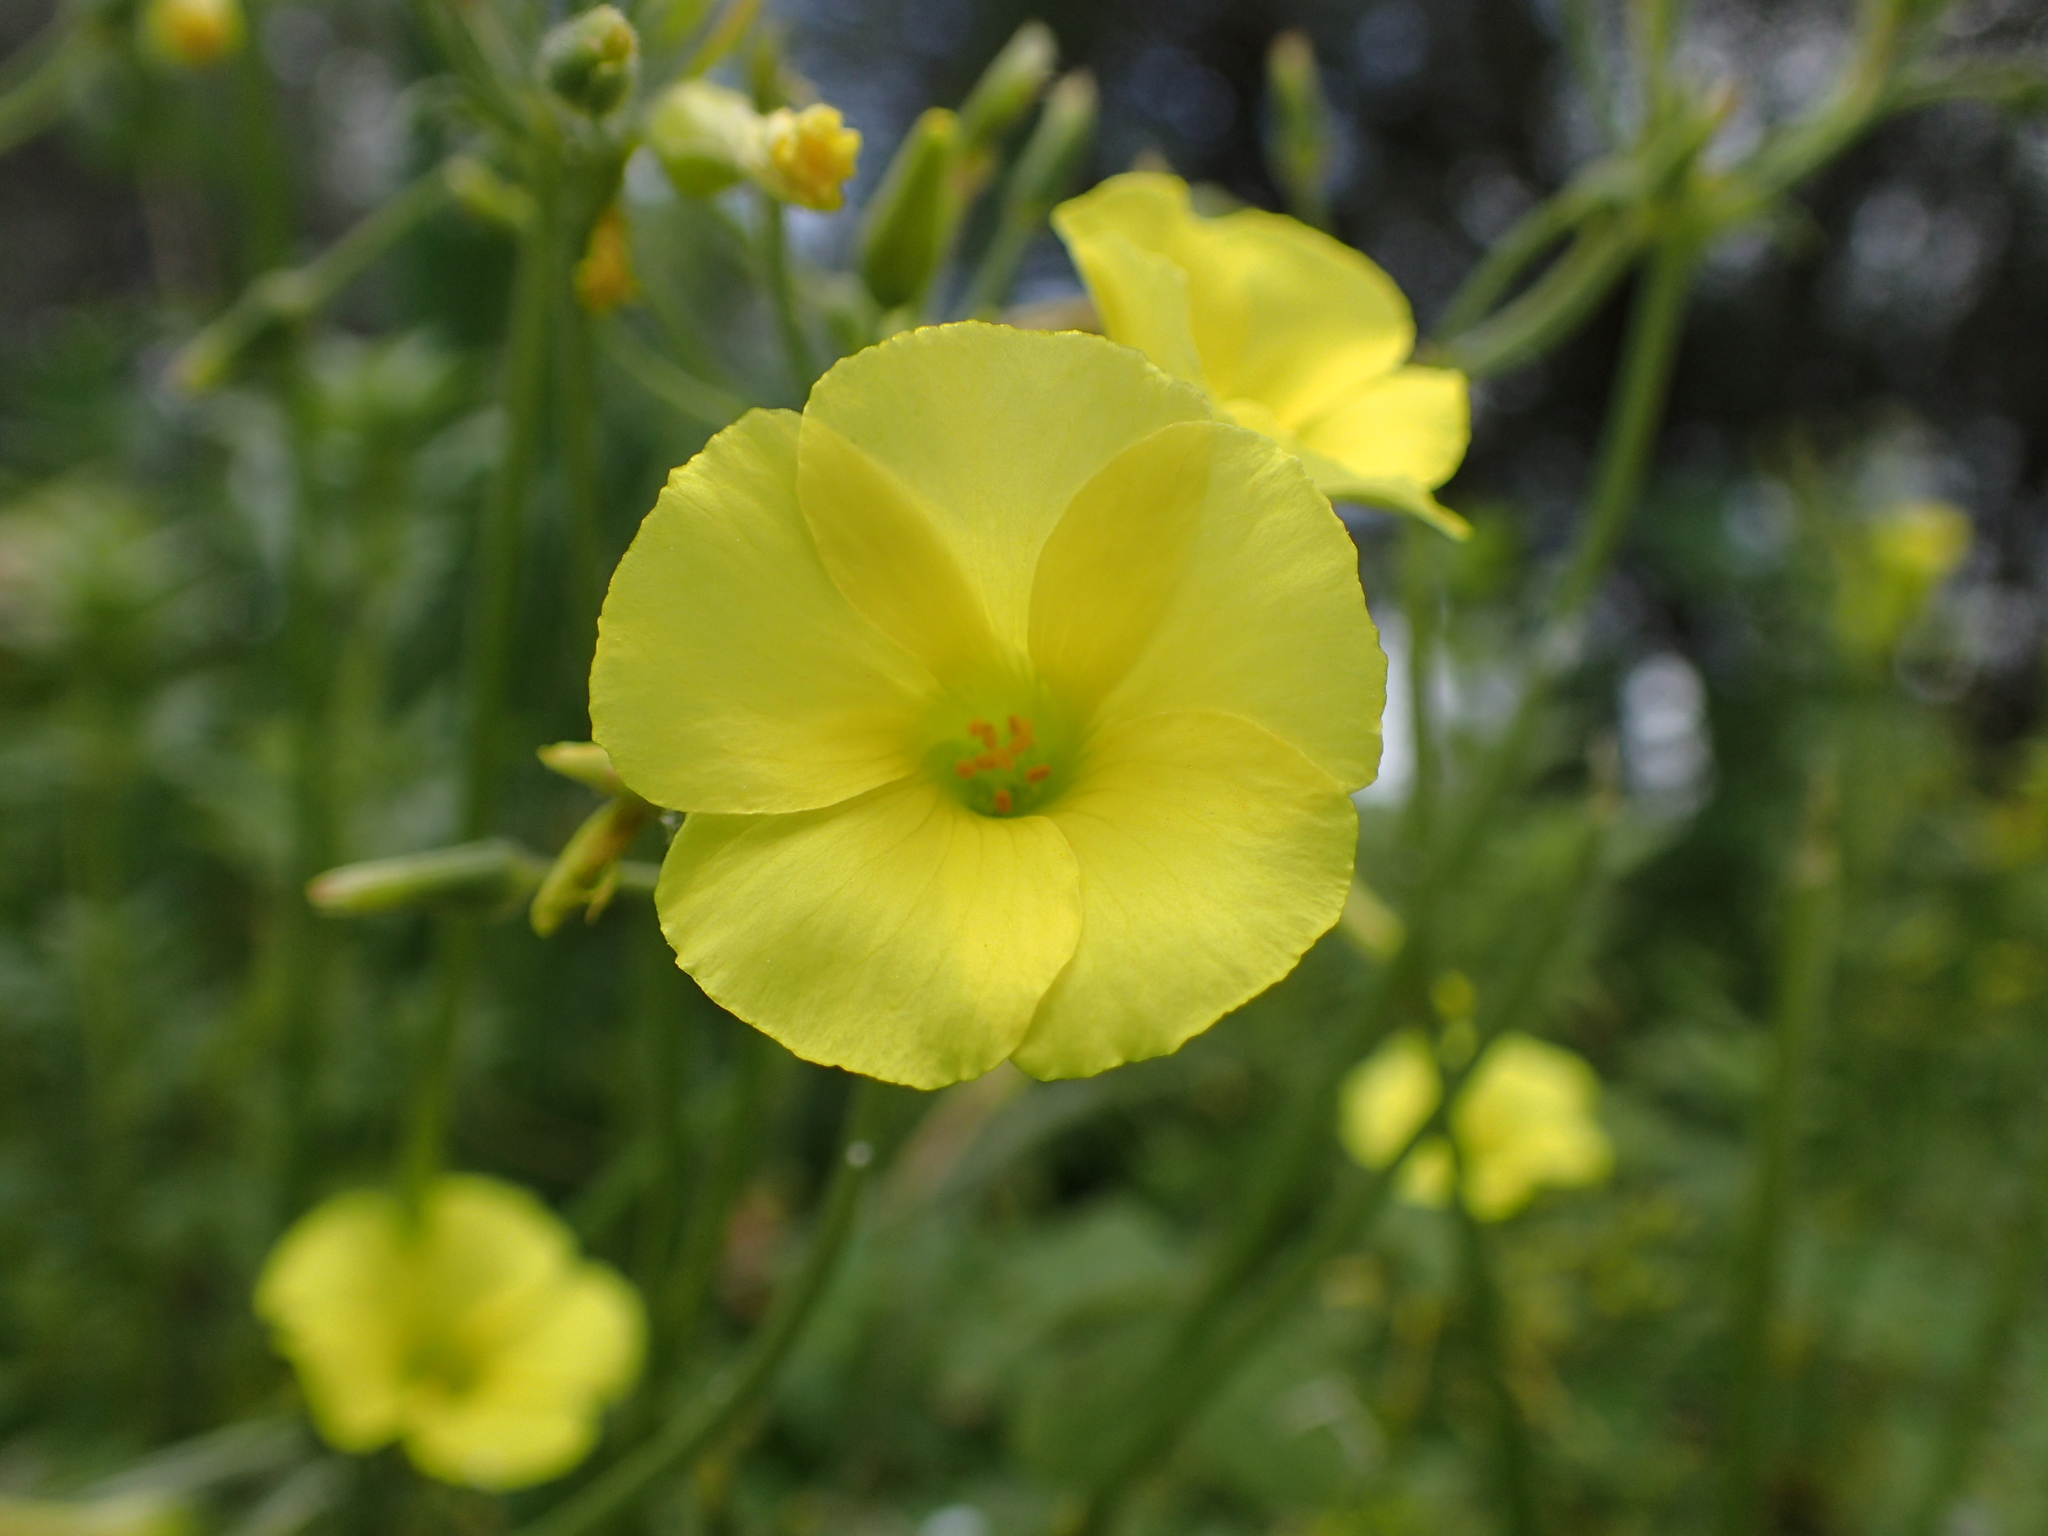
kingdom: Plantae
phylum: Tracheophyta
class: Magnoliopsida
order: Oxalidales
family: Oxalidaceae
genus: Oxalis
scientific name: Oxalis pes-caprae
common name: Bermuda-buttercup
